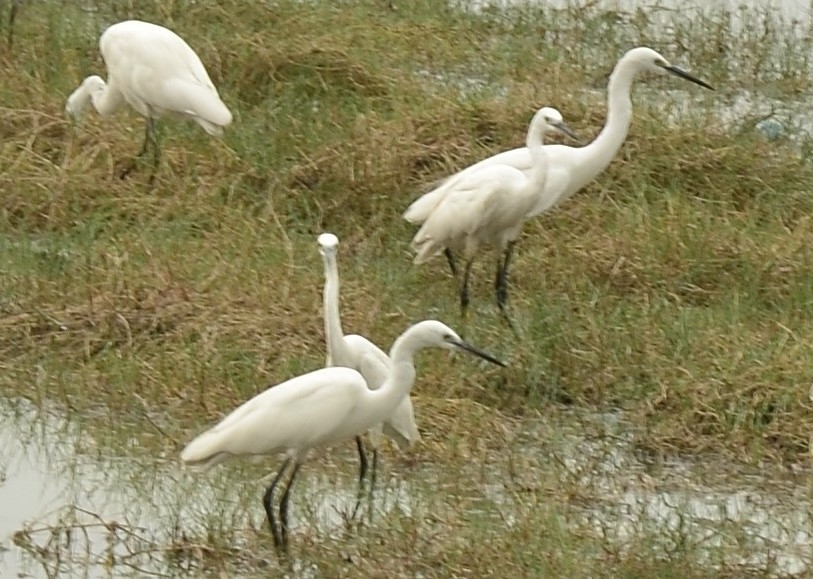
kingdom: Animalia
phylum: Chordata
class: Aves
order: Pelecaniformes
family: Ardeidae
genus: Egretta
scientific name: Egretta garzetta
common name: Little egret
